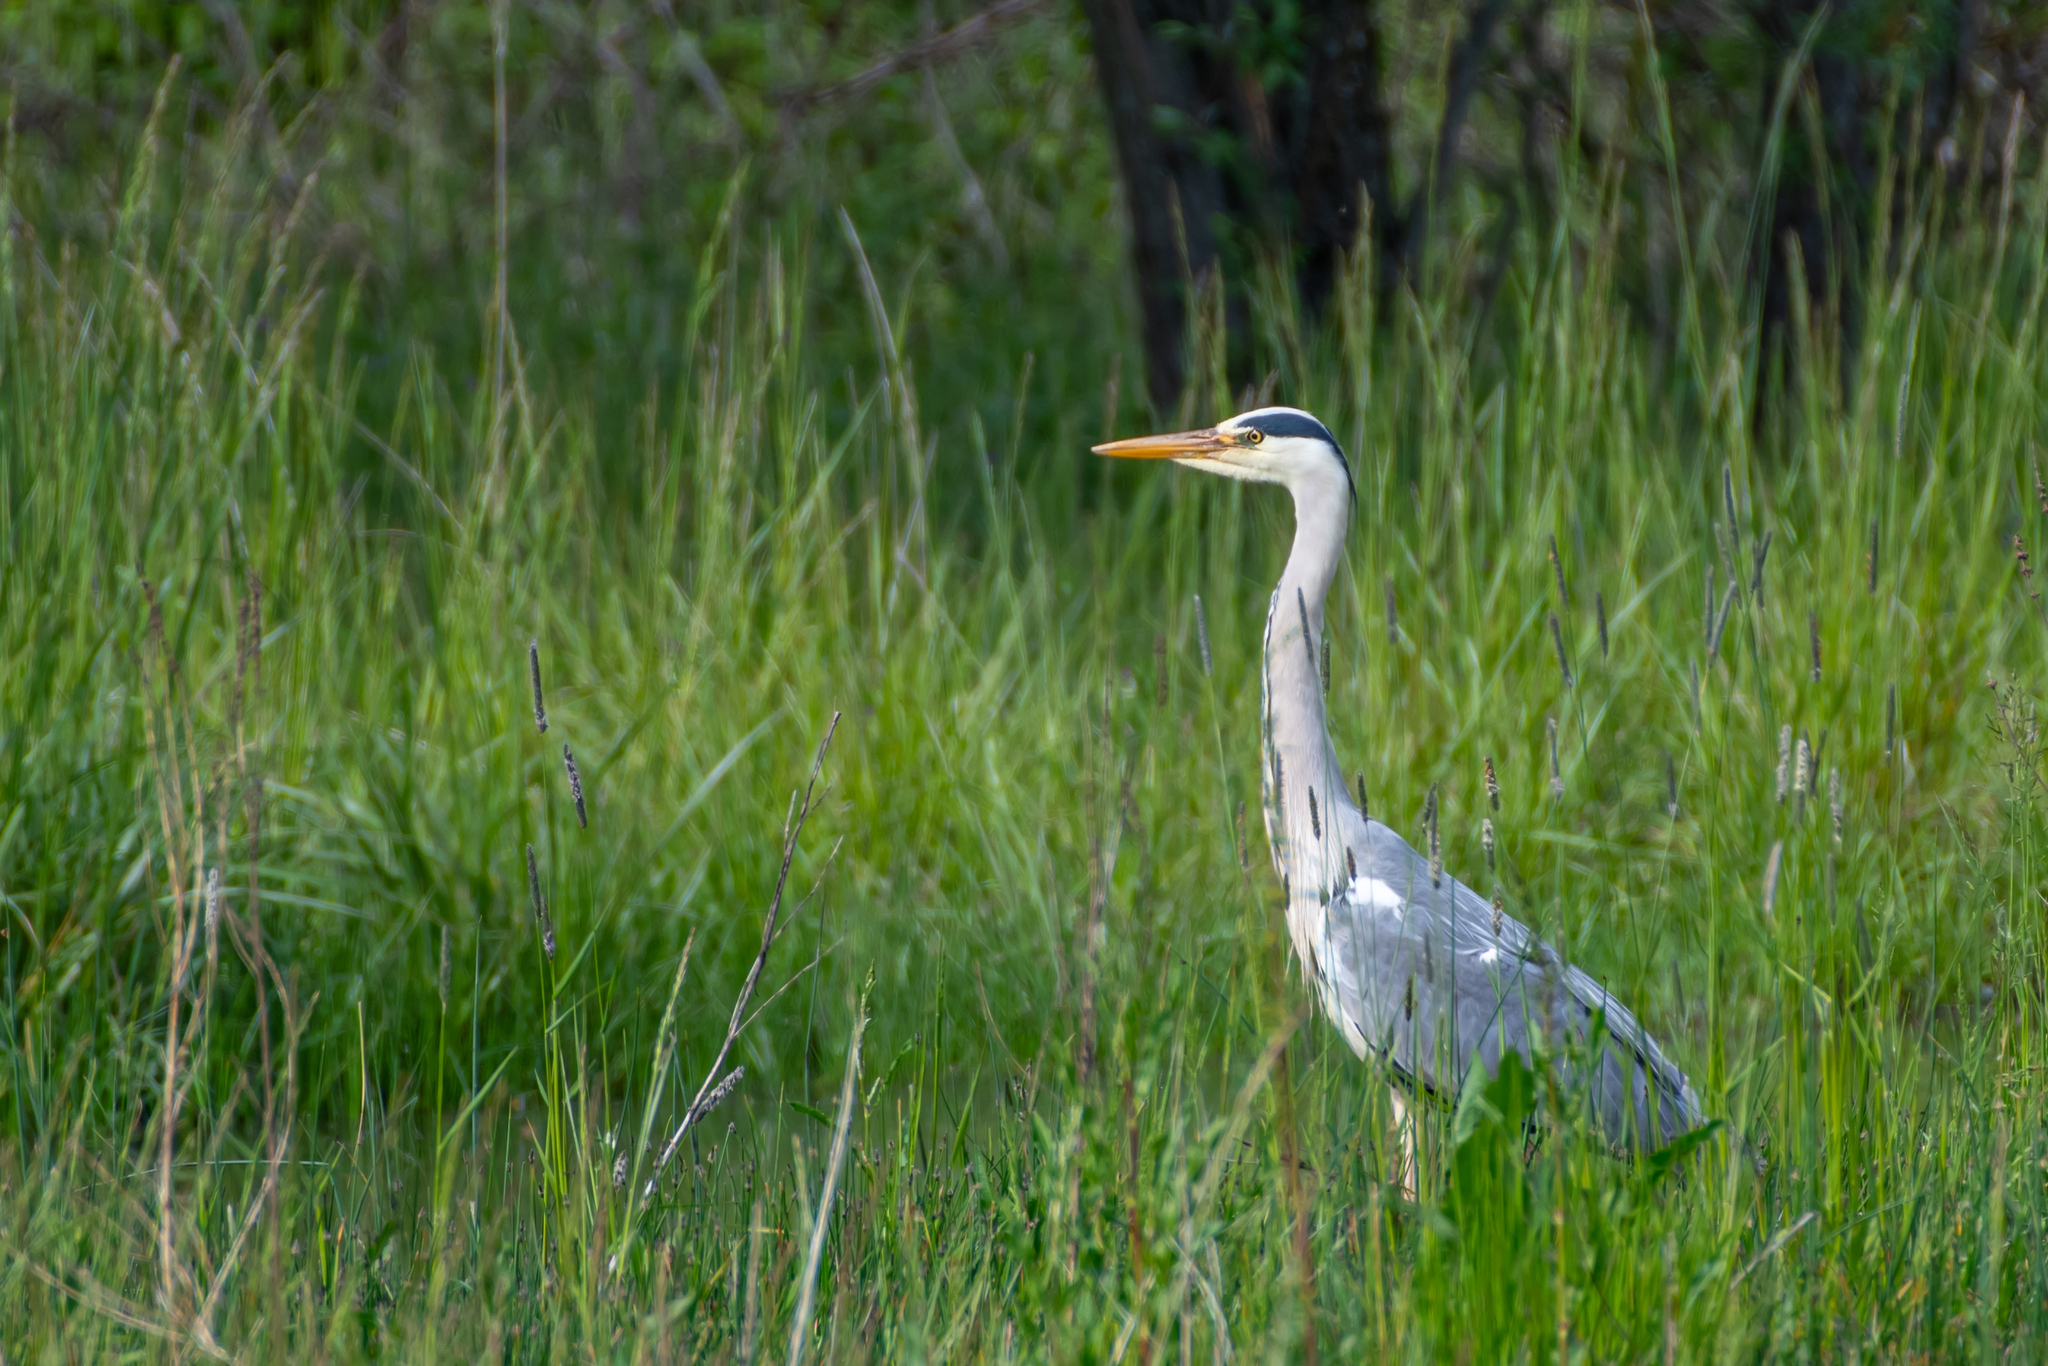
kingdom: Animalia
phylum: Chordata
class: Aves
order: Pelecaniformes
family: Ardeidae
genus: Ardea
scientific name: Ardea cinerea
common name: Grey heron
